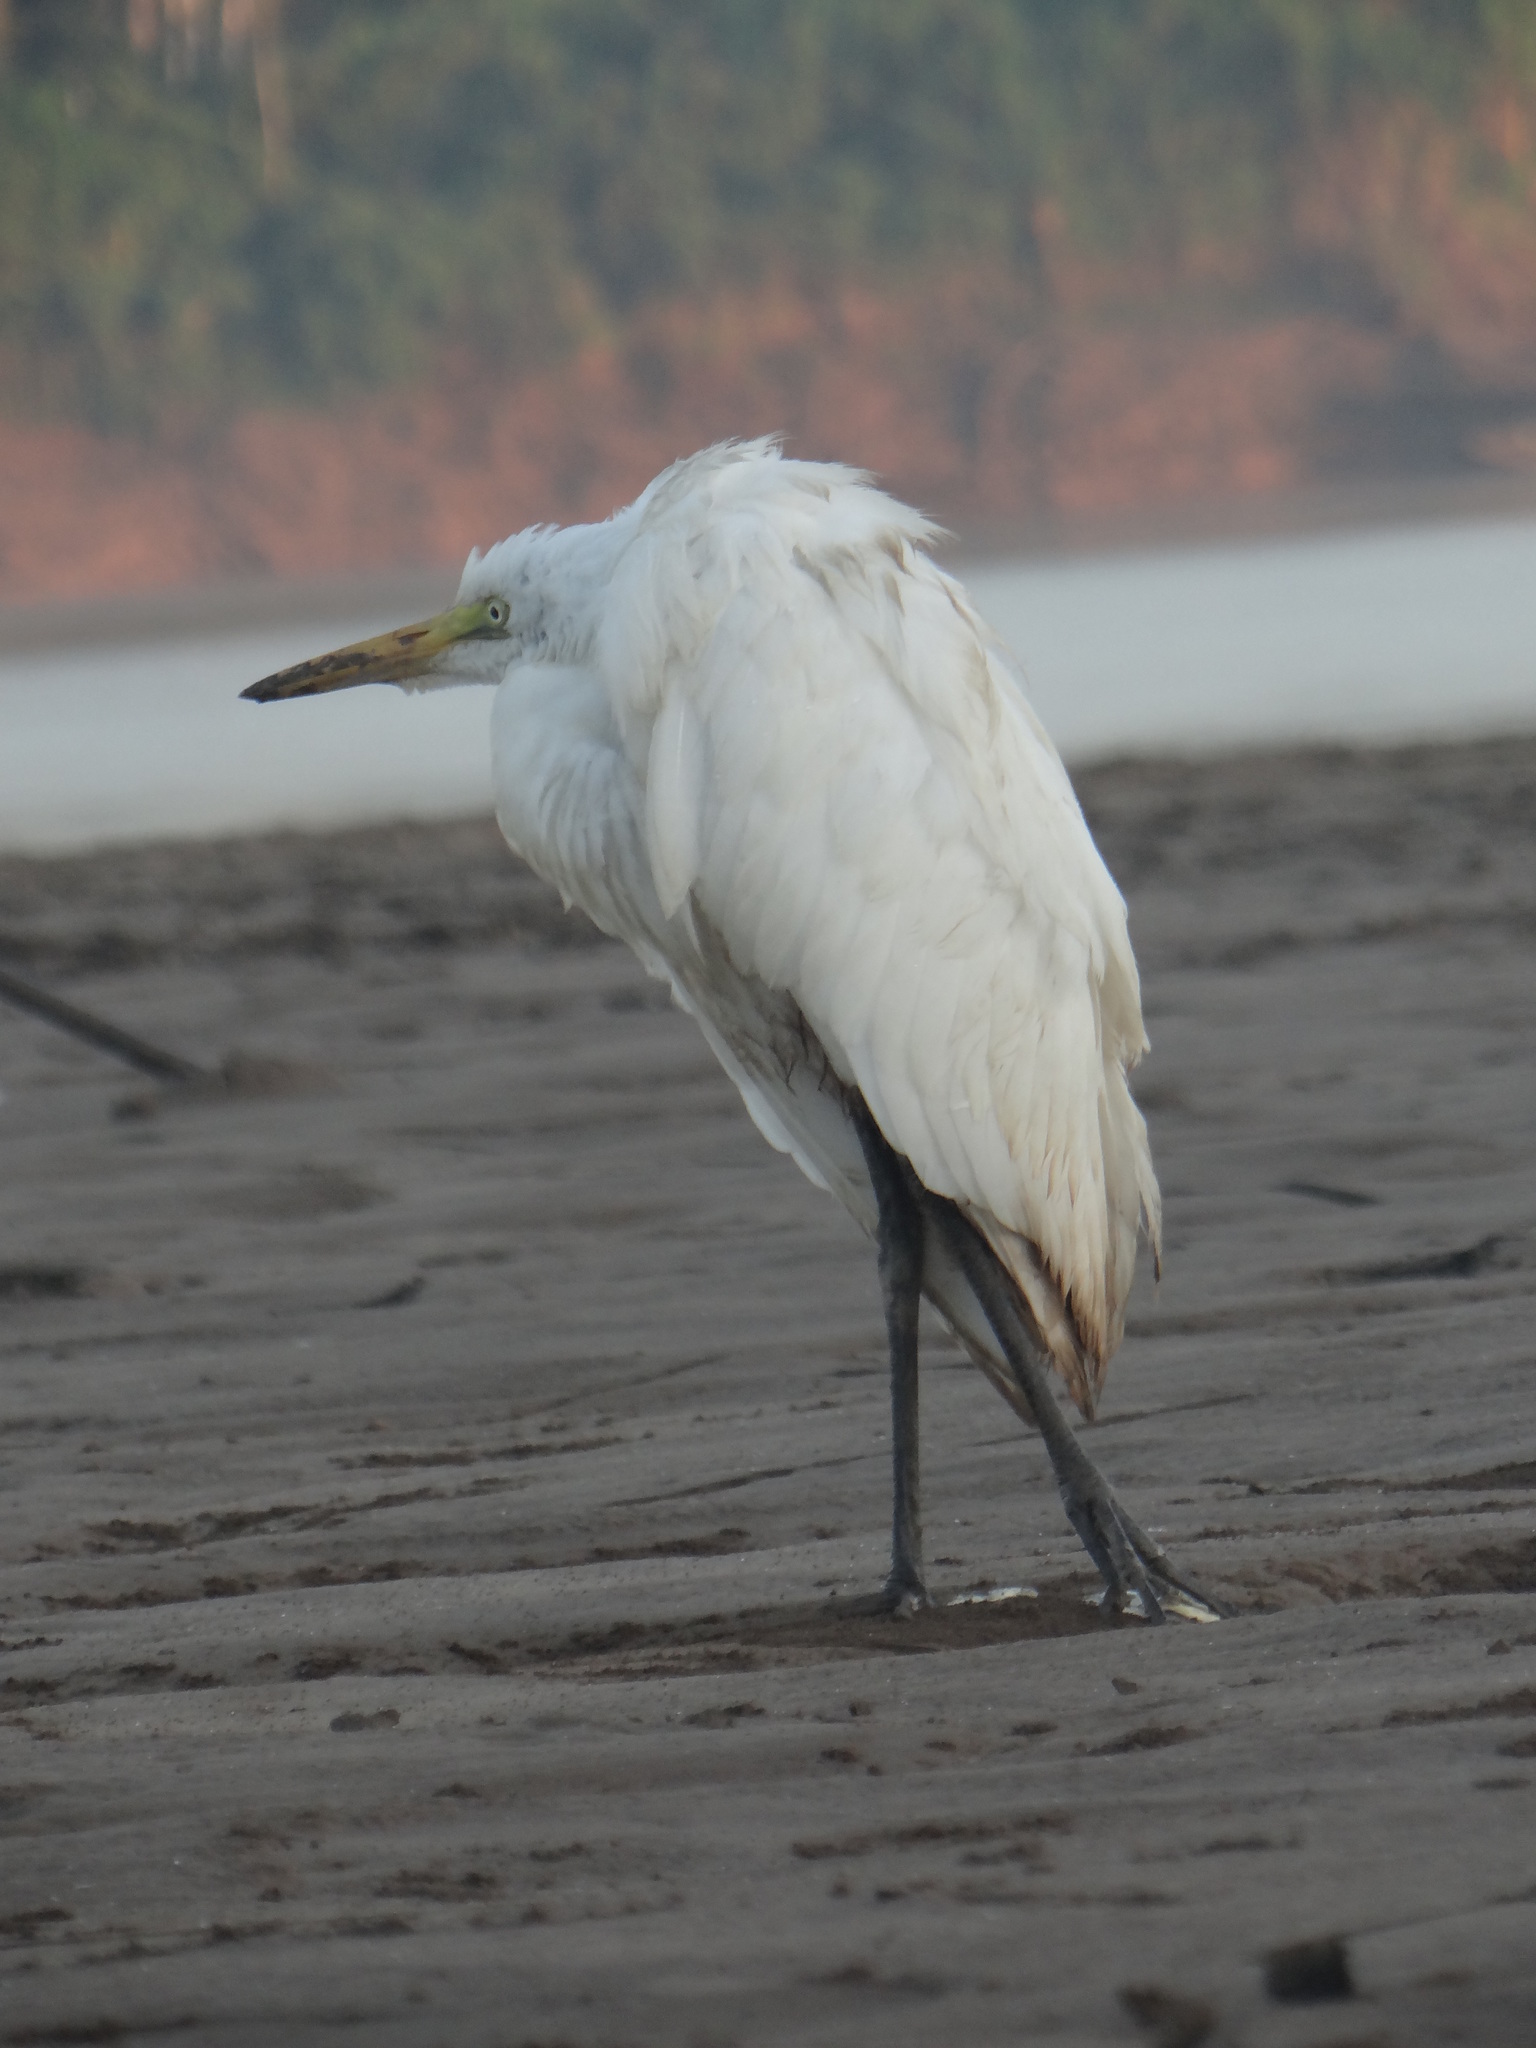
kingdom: Animalia
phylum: Chordata
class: Aves
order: Pelecaniformes
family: Ardeidae
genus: Ardea
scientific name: Ardea alba
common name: Great egret
